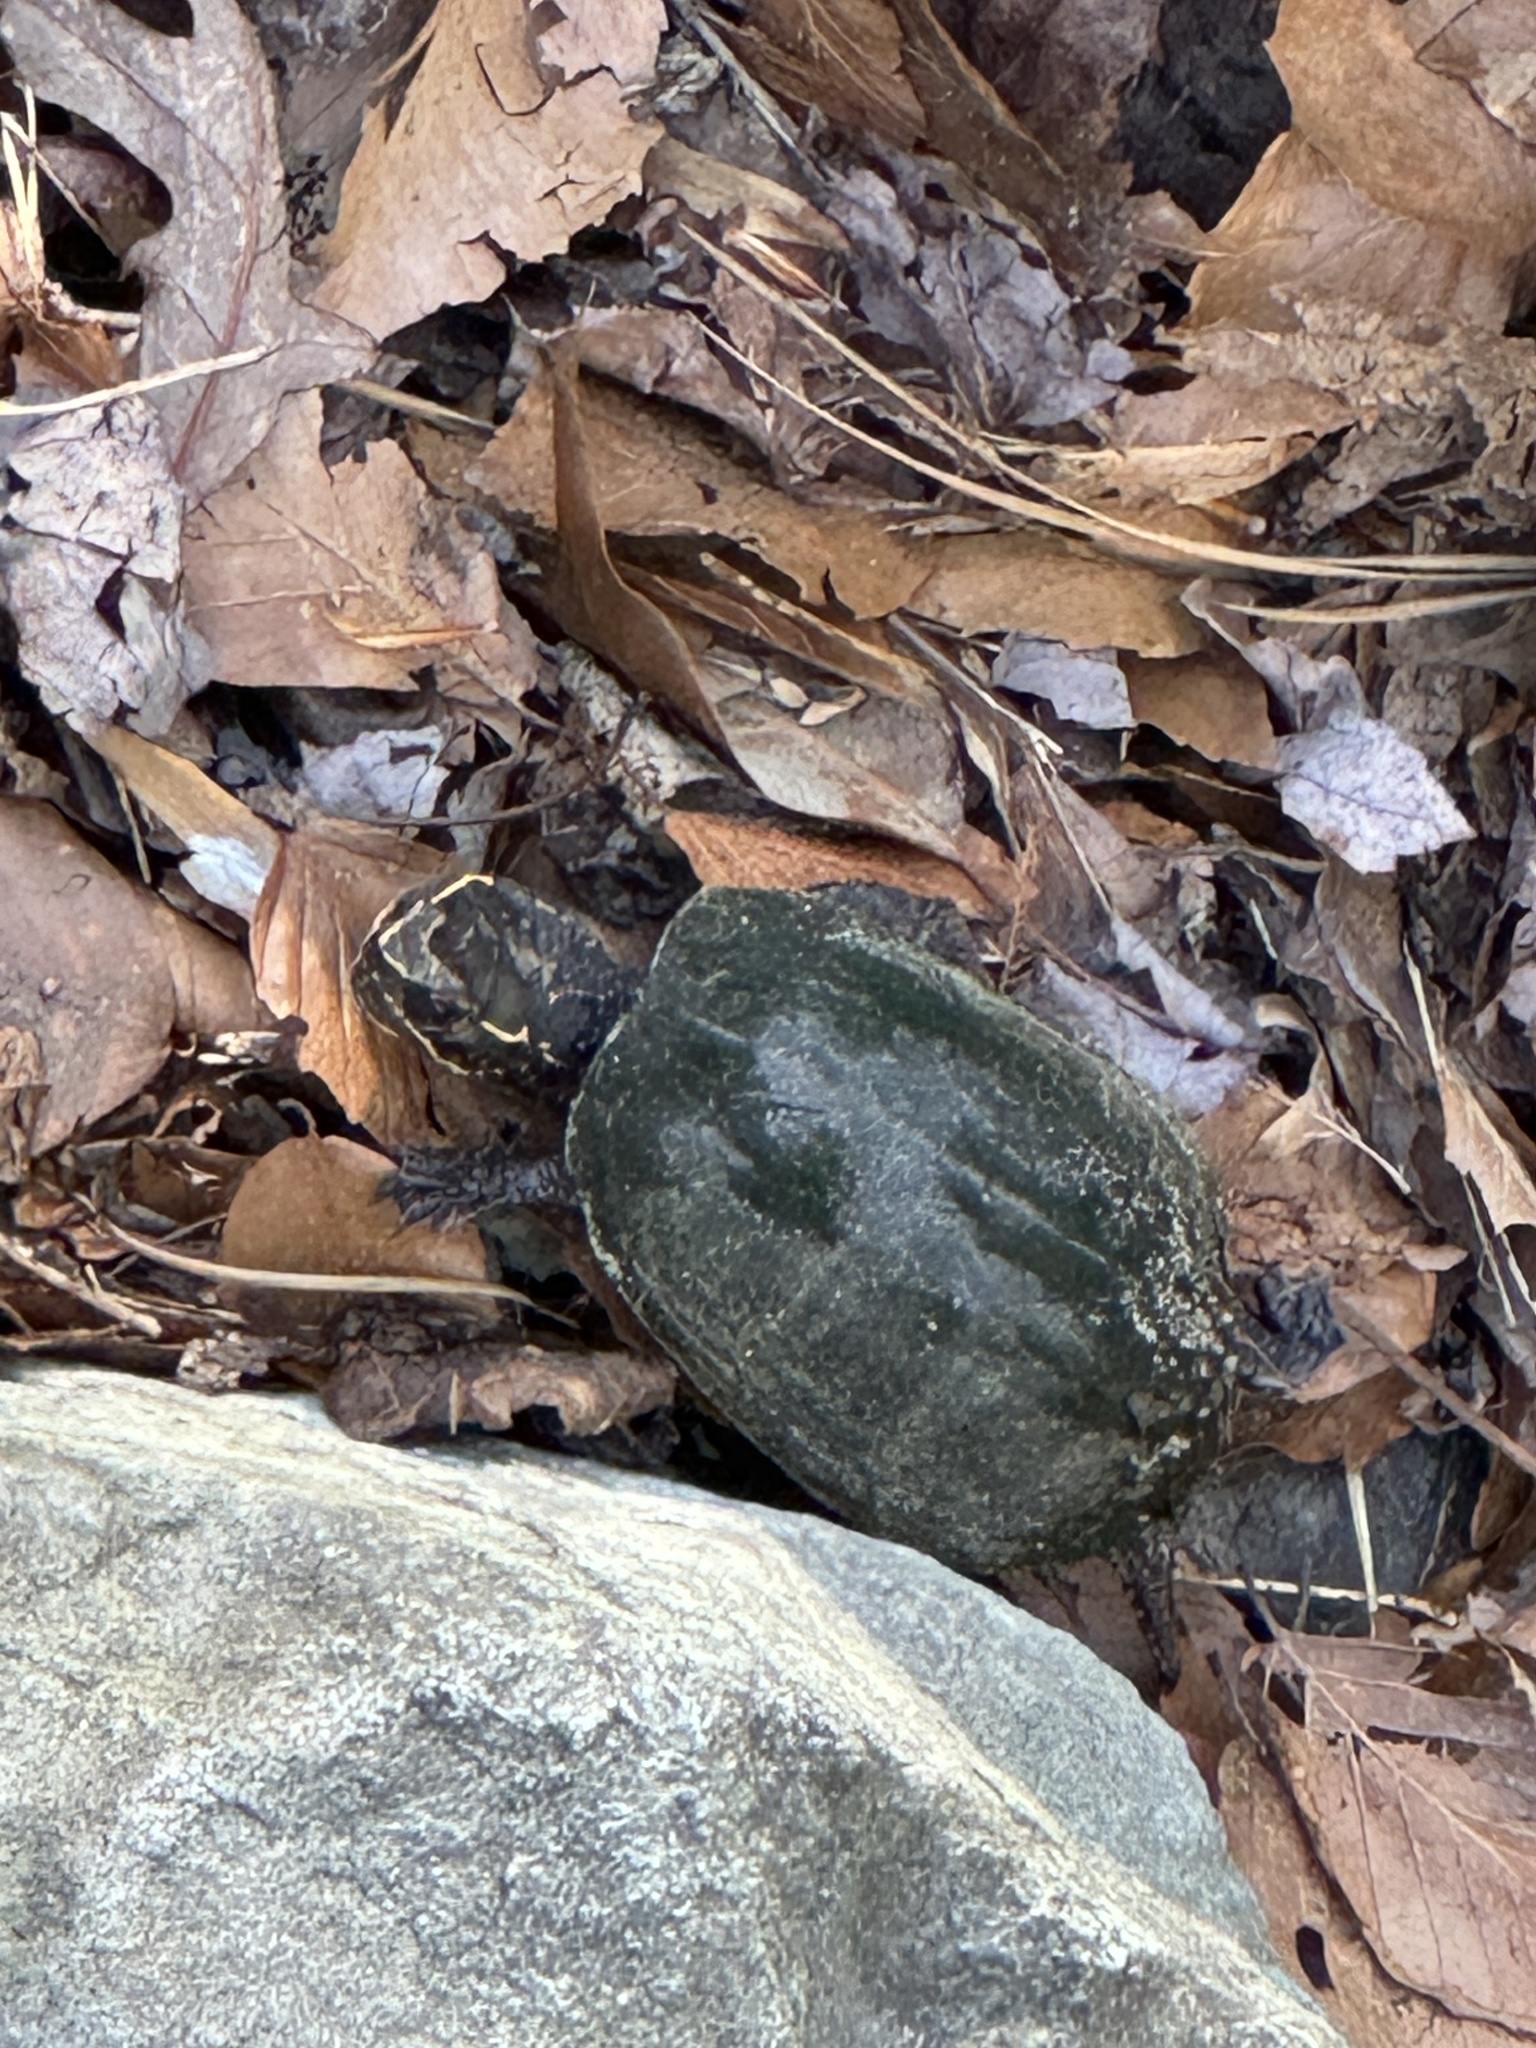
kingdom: Animalia
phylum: Chordata
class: Testudines
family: Kinosternidae
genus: Sternotherus
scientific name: Sternotherus odoratus
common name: Common musk turtle
